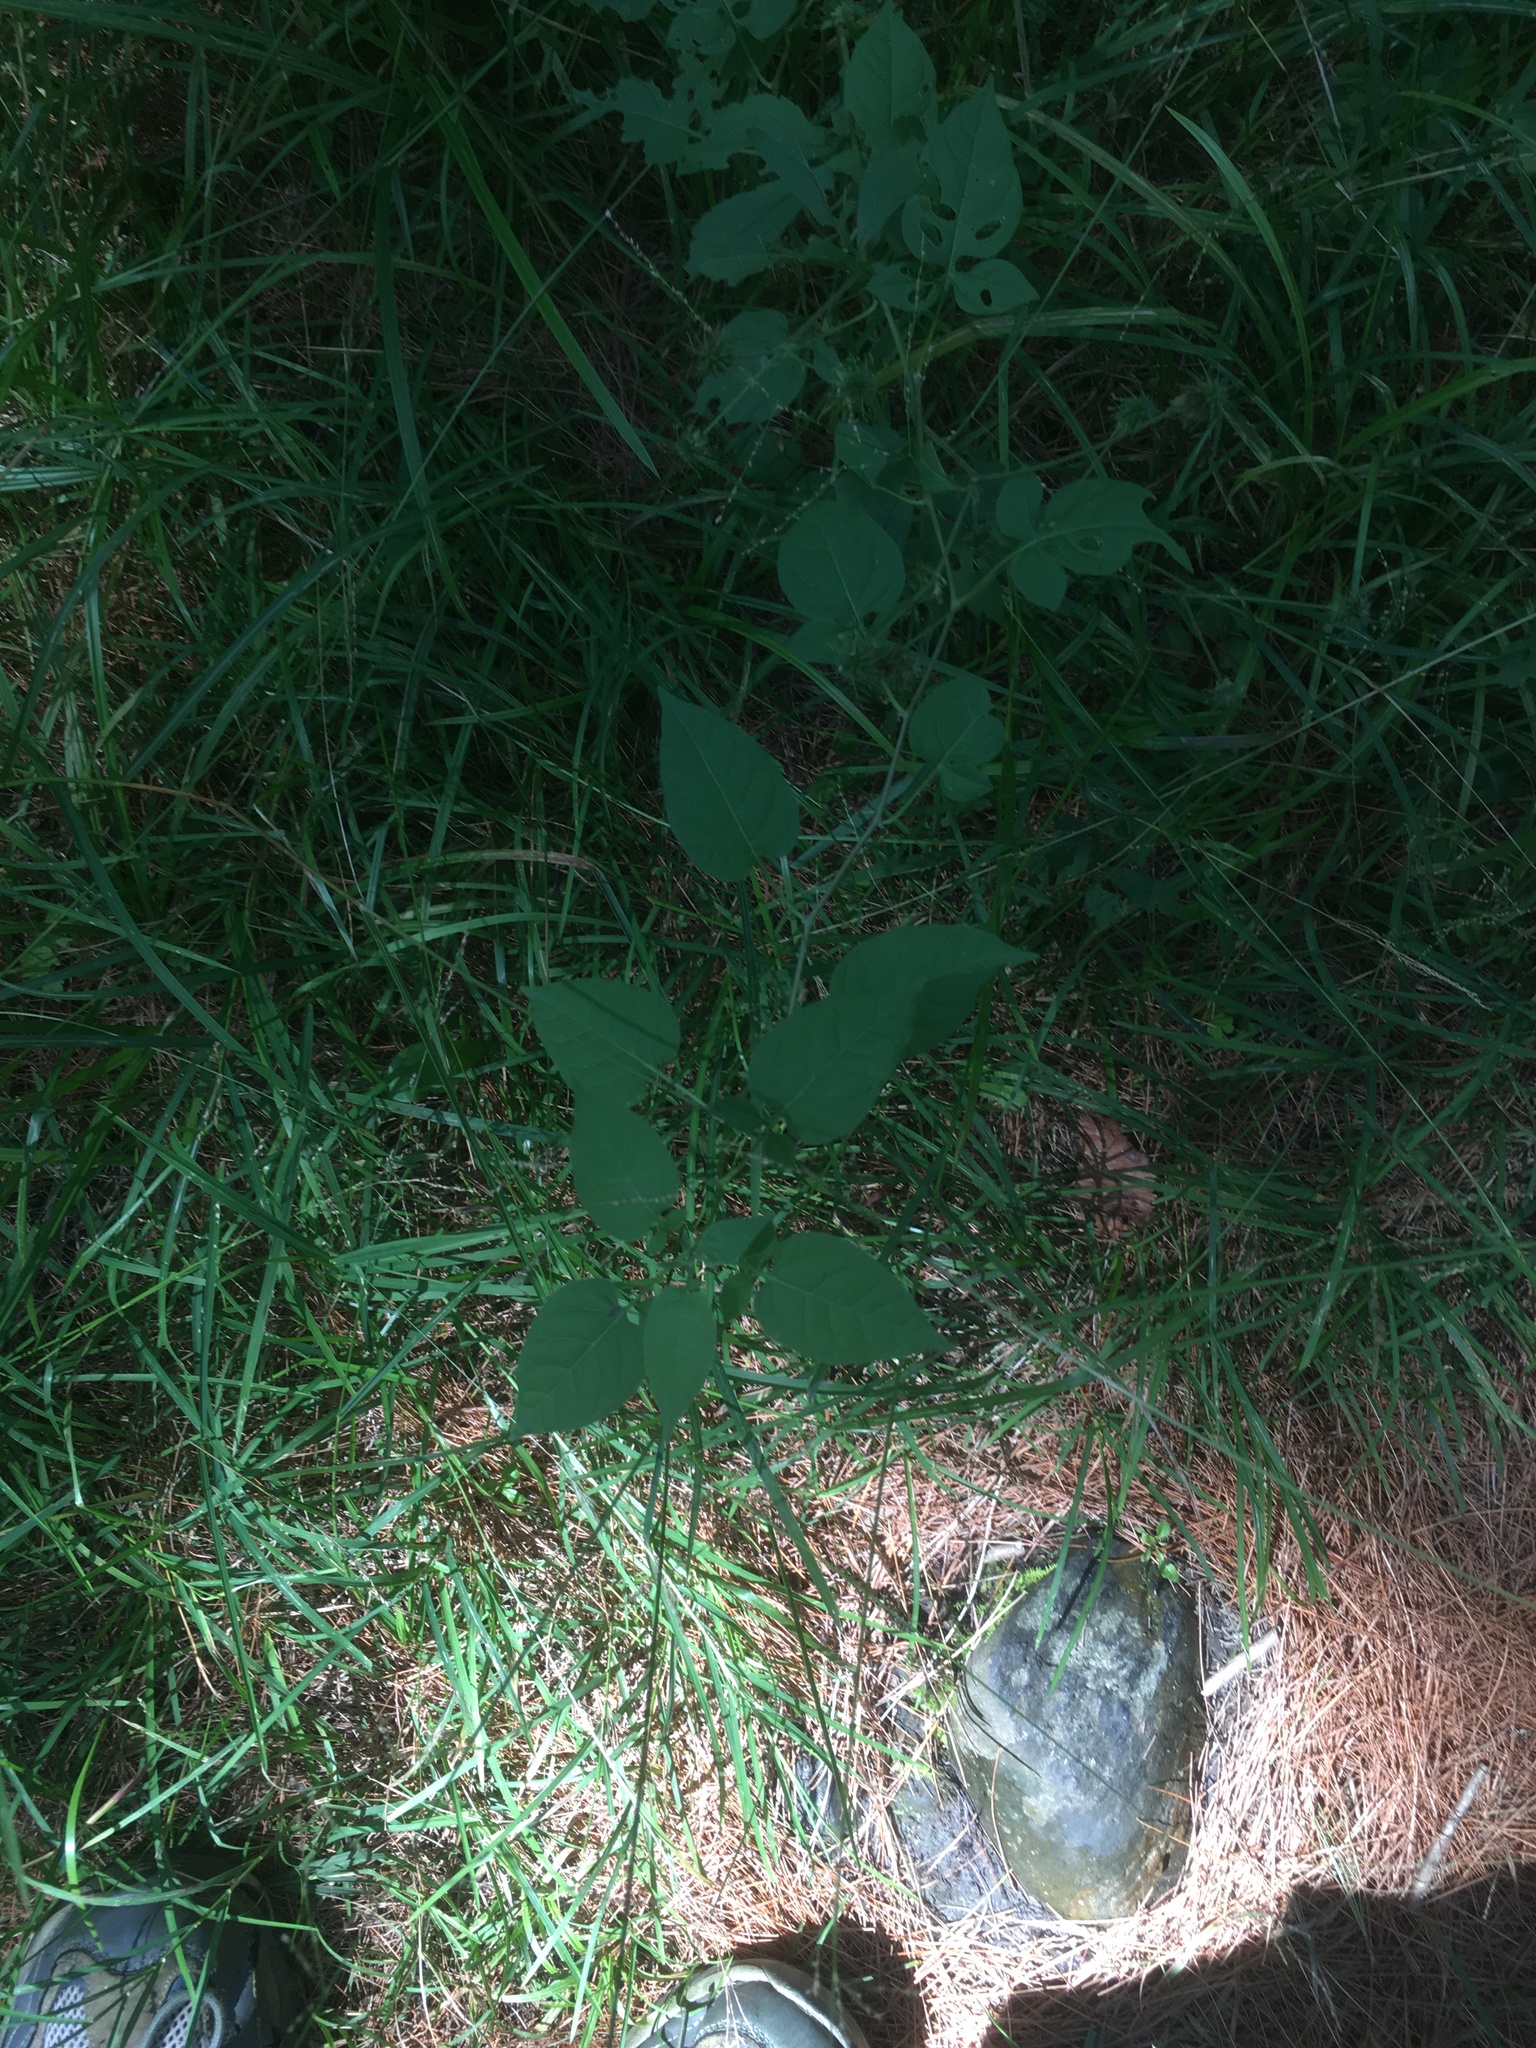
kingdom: Plantae
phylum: Tracheophyta
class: Magnoliopsida
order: Solanales
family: Solanaceae
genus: Solanum
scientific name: Solanum dulcamara
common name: Climbing nightshade
